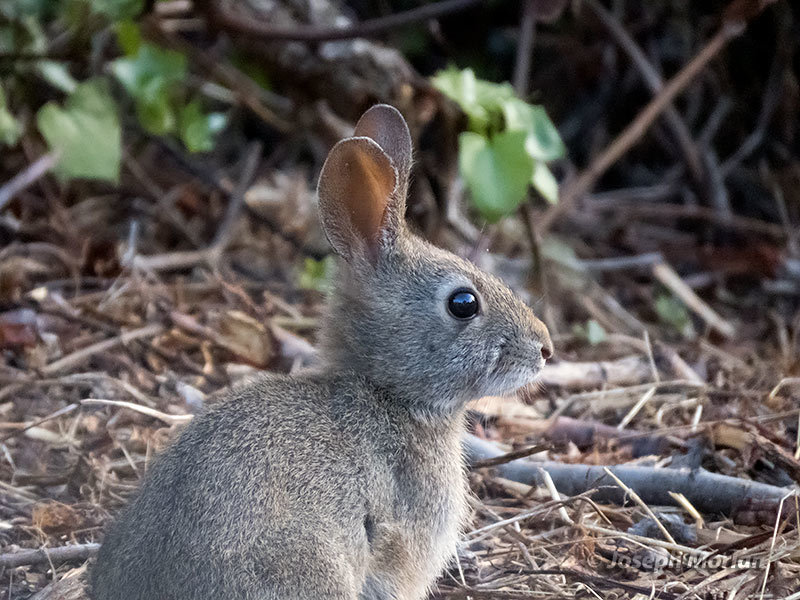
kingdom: Animalia
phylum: Chordata
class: Mammalia
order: Lagomorpha
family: Leporidae
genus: Sylvilagus
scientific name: Sylvilagus bachmani
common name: Brush rabbit
